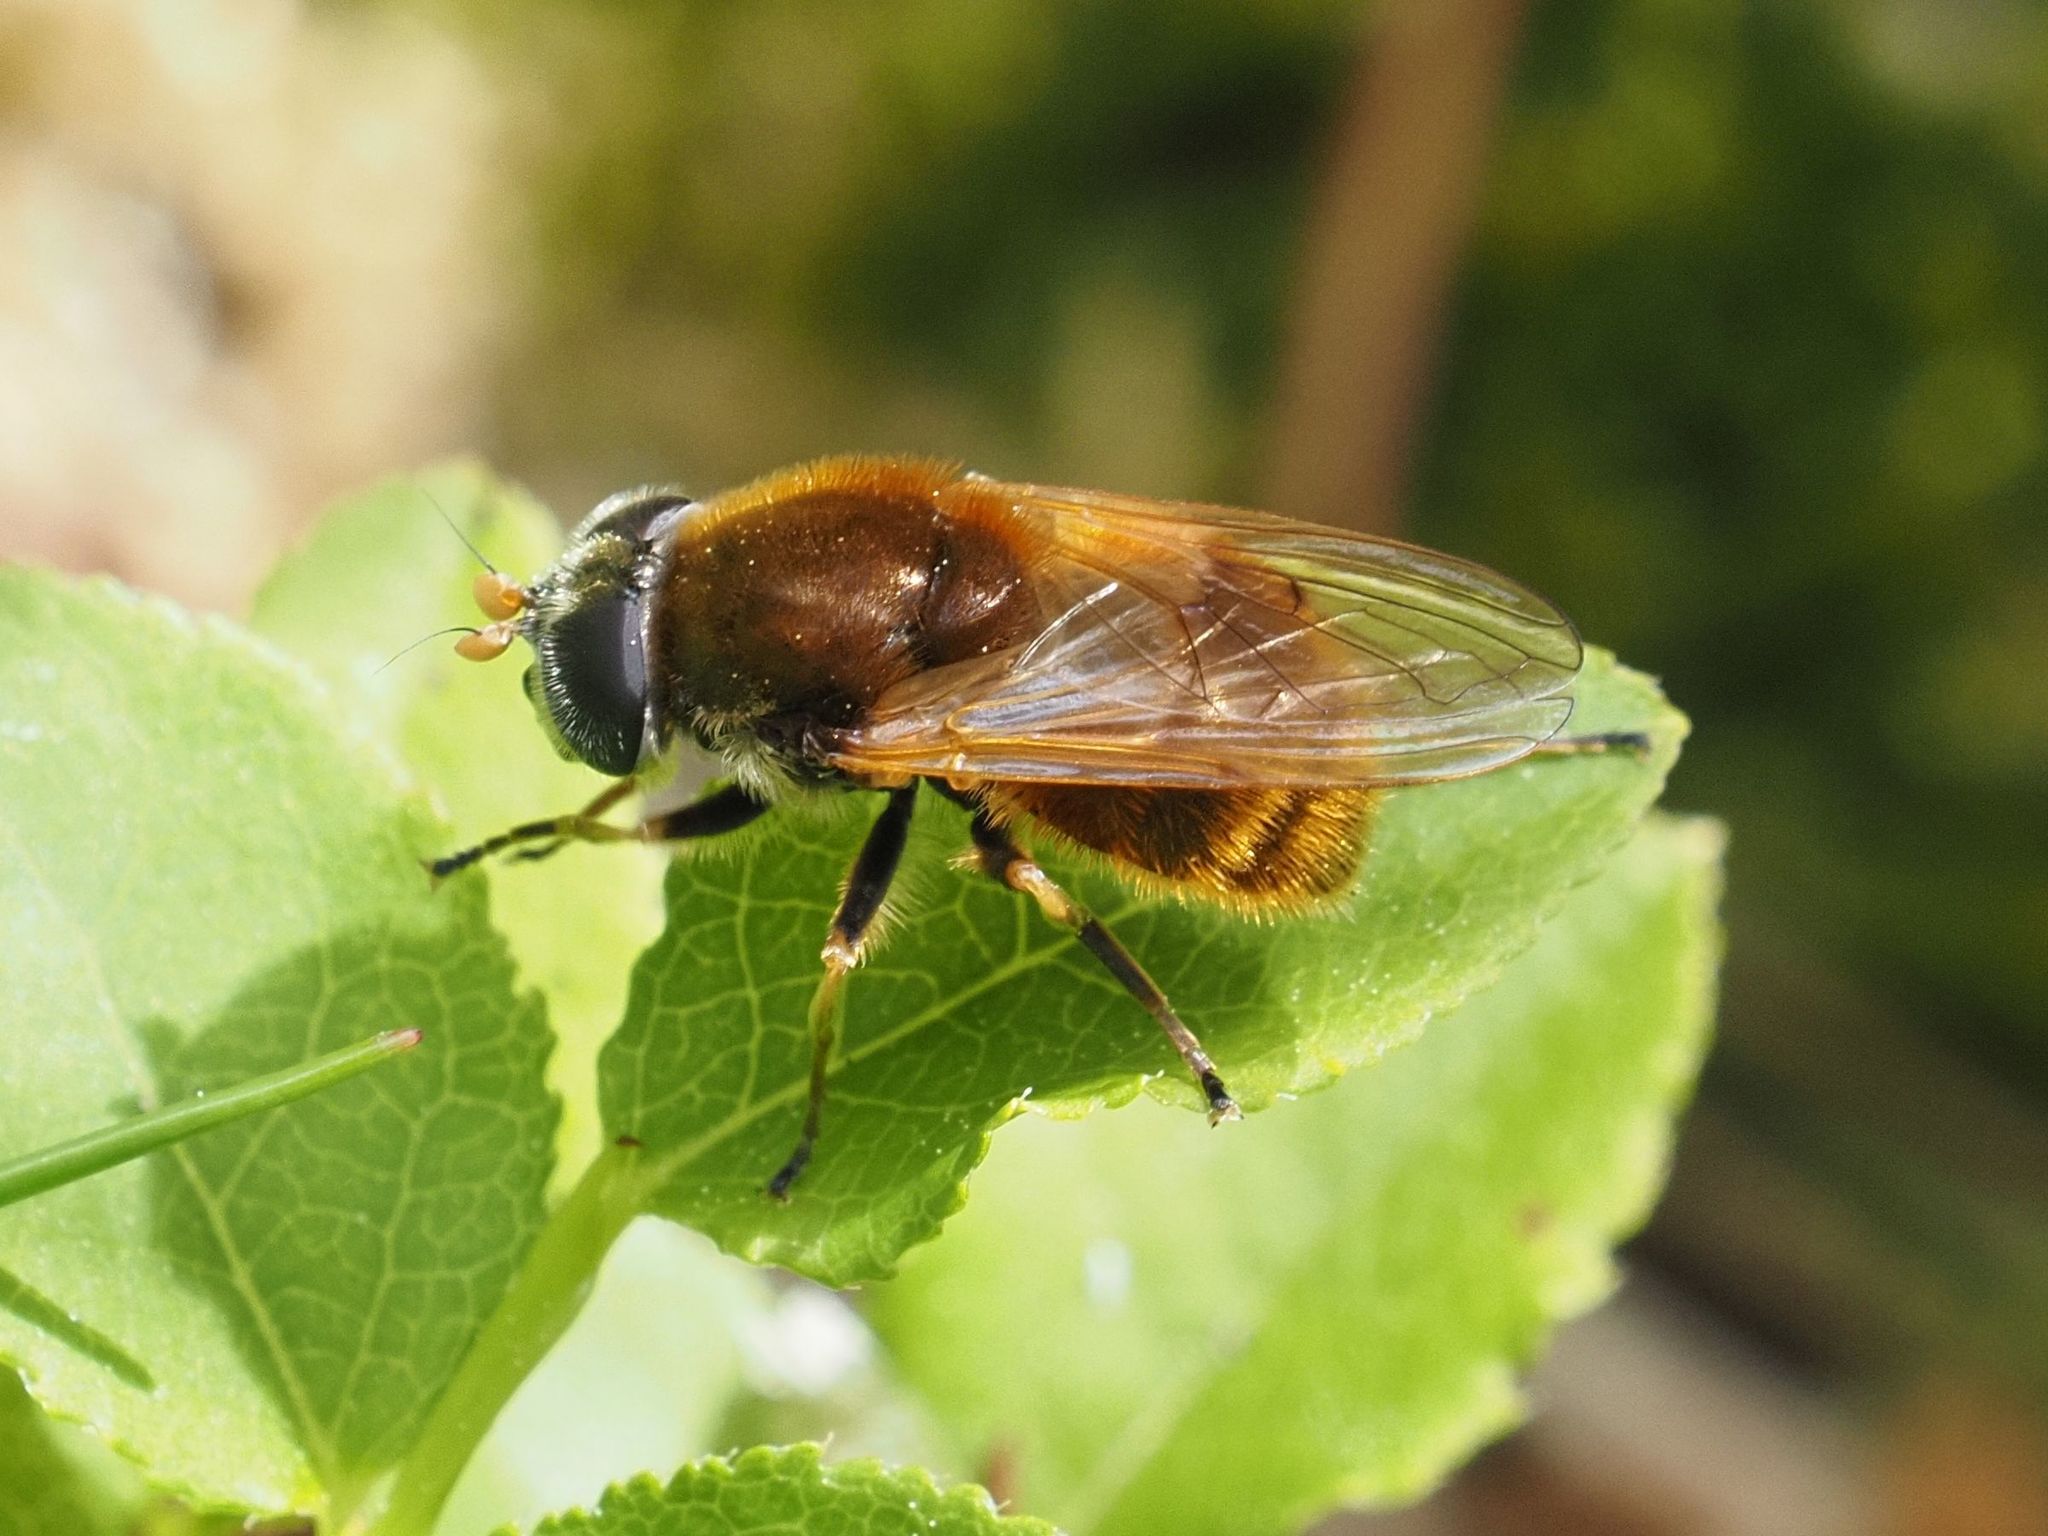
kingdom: Animalia
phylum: Arthropoda
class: Insecta
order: Diptera
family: Syrphidae
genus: Cheilosia
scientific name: Cheilosia chrysocoma
